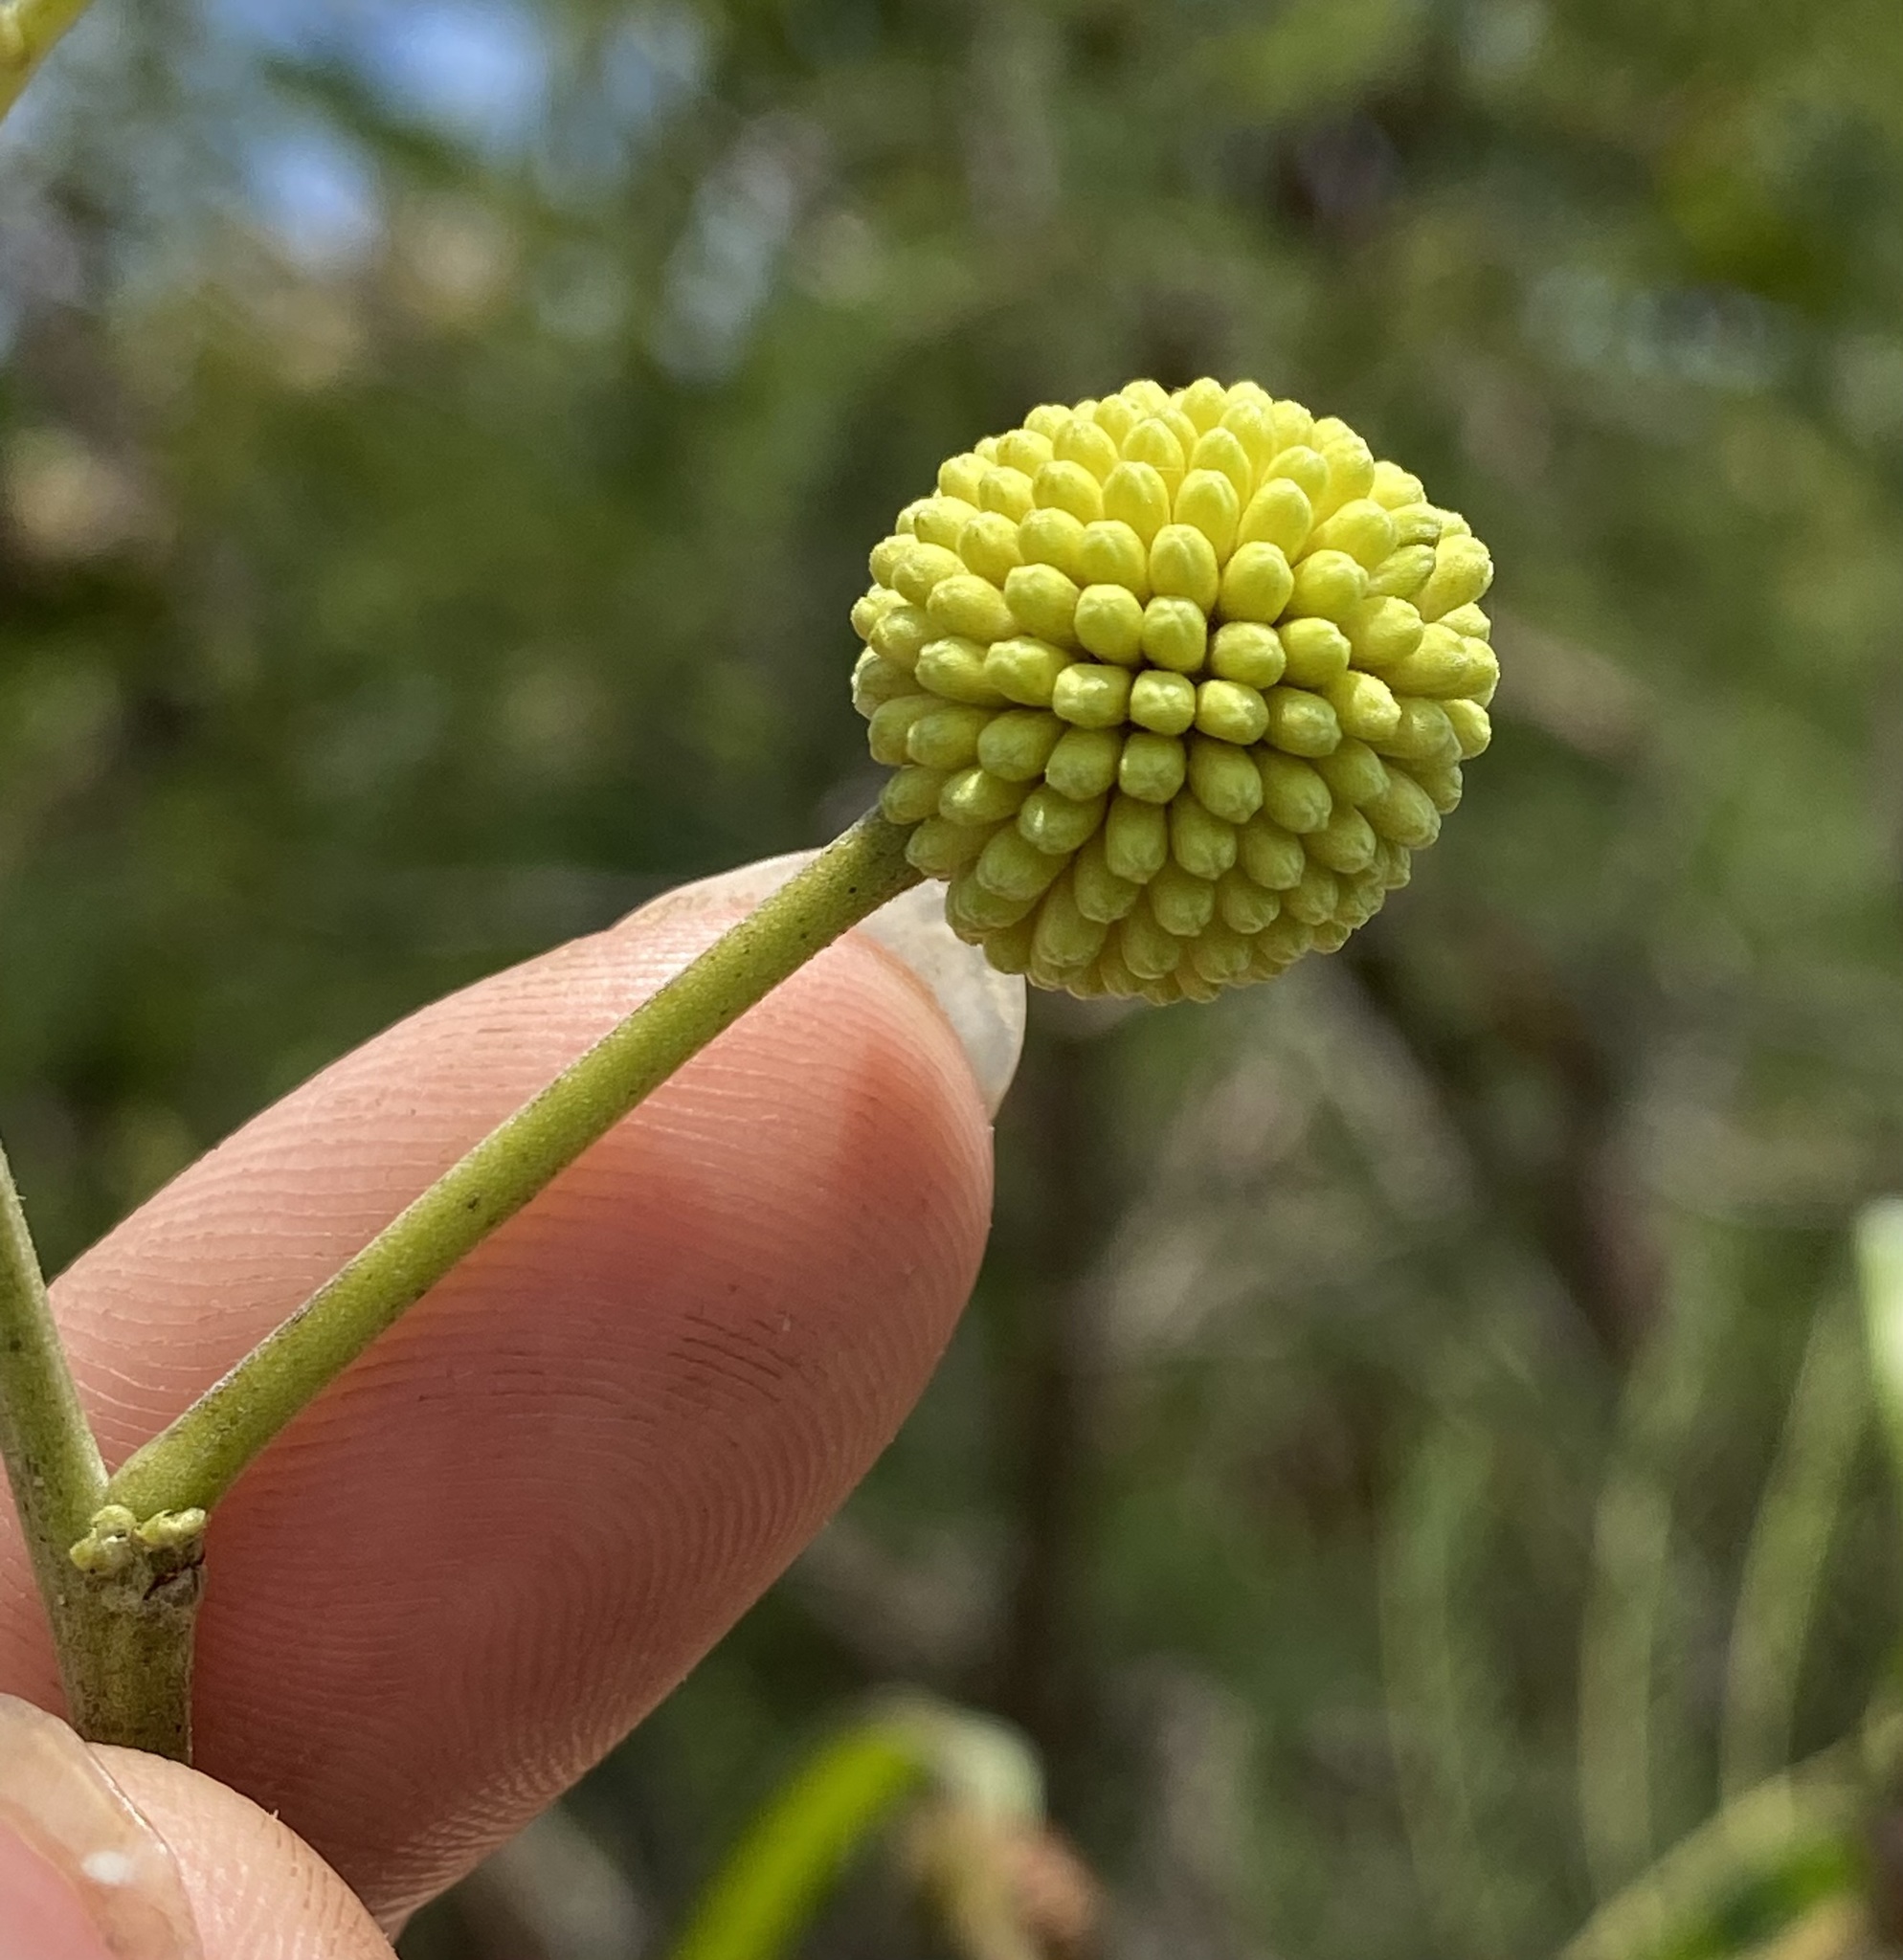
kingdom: Plantae
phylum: Tracheophyta
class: Magnoliopsida
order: Fabales
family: Fabaceae
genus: Leucaena
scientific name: Leucaena leucocephala
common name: White leadtree
